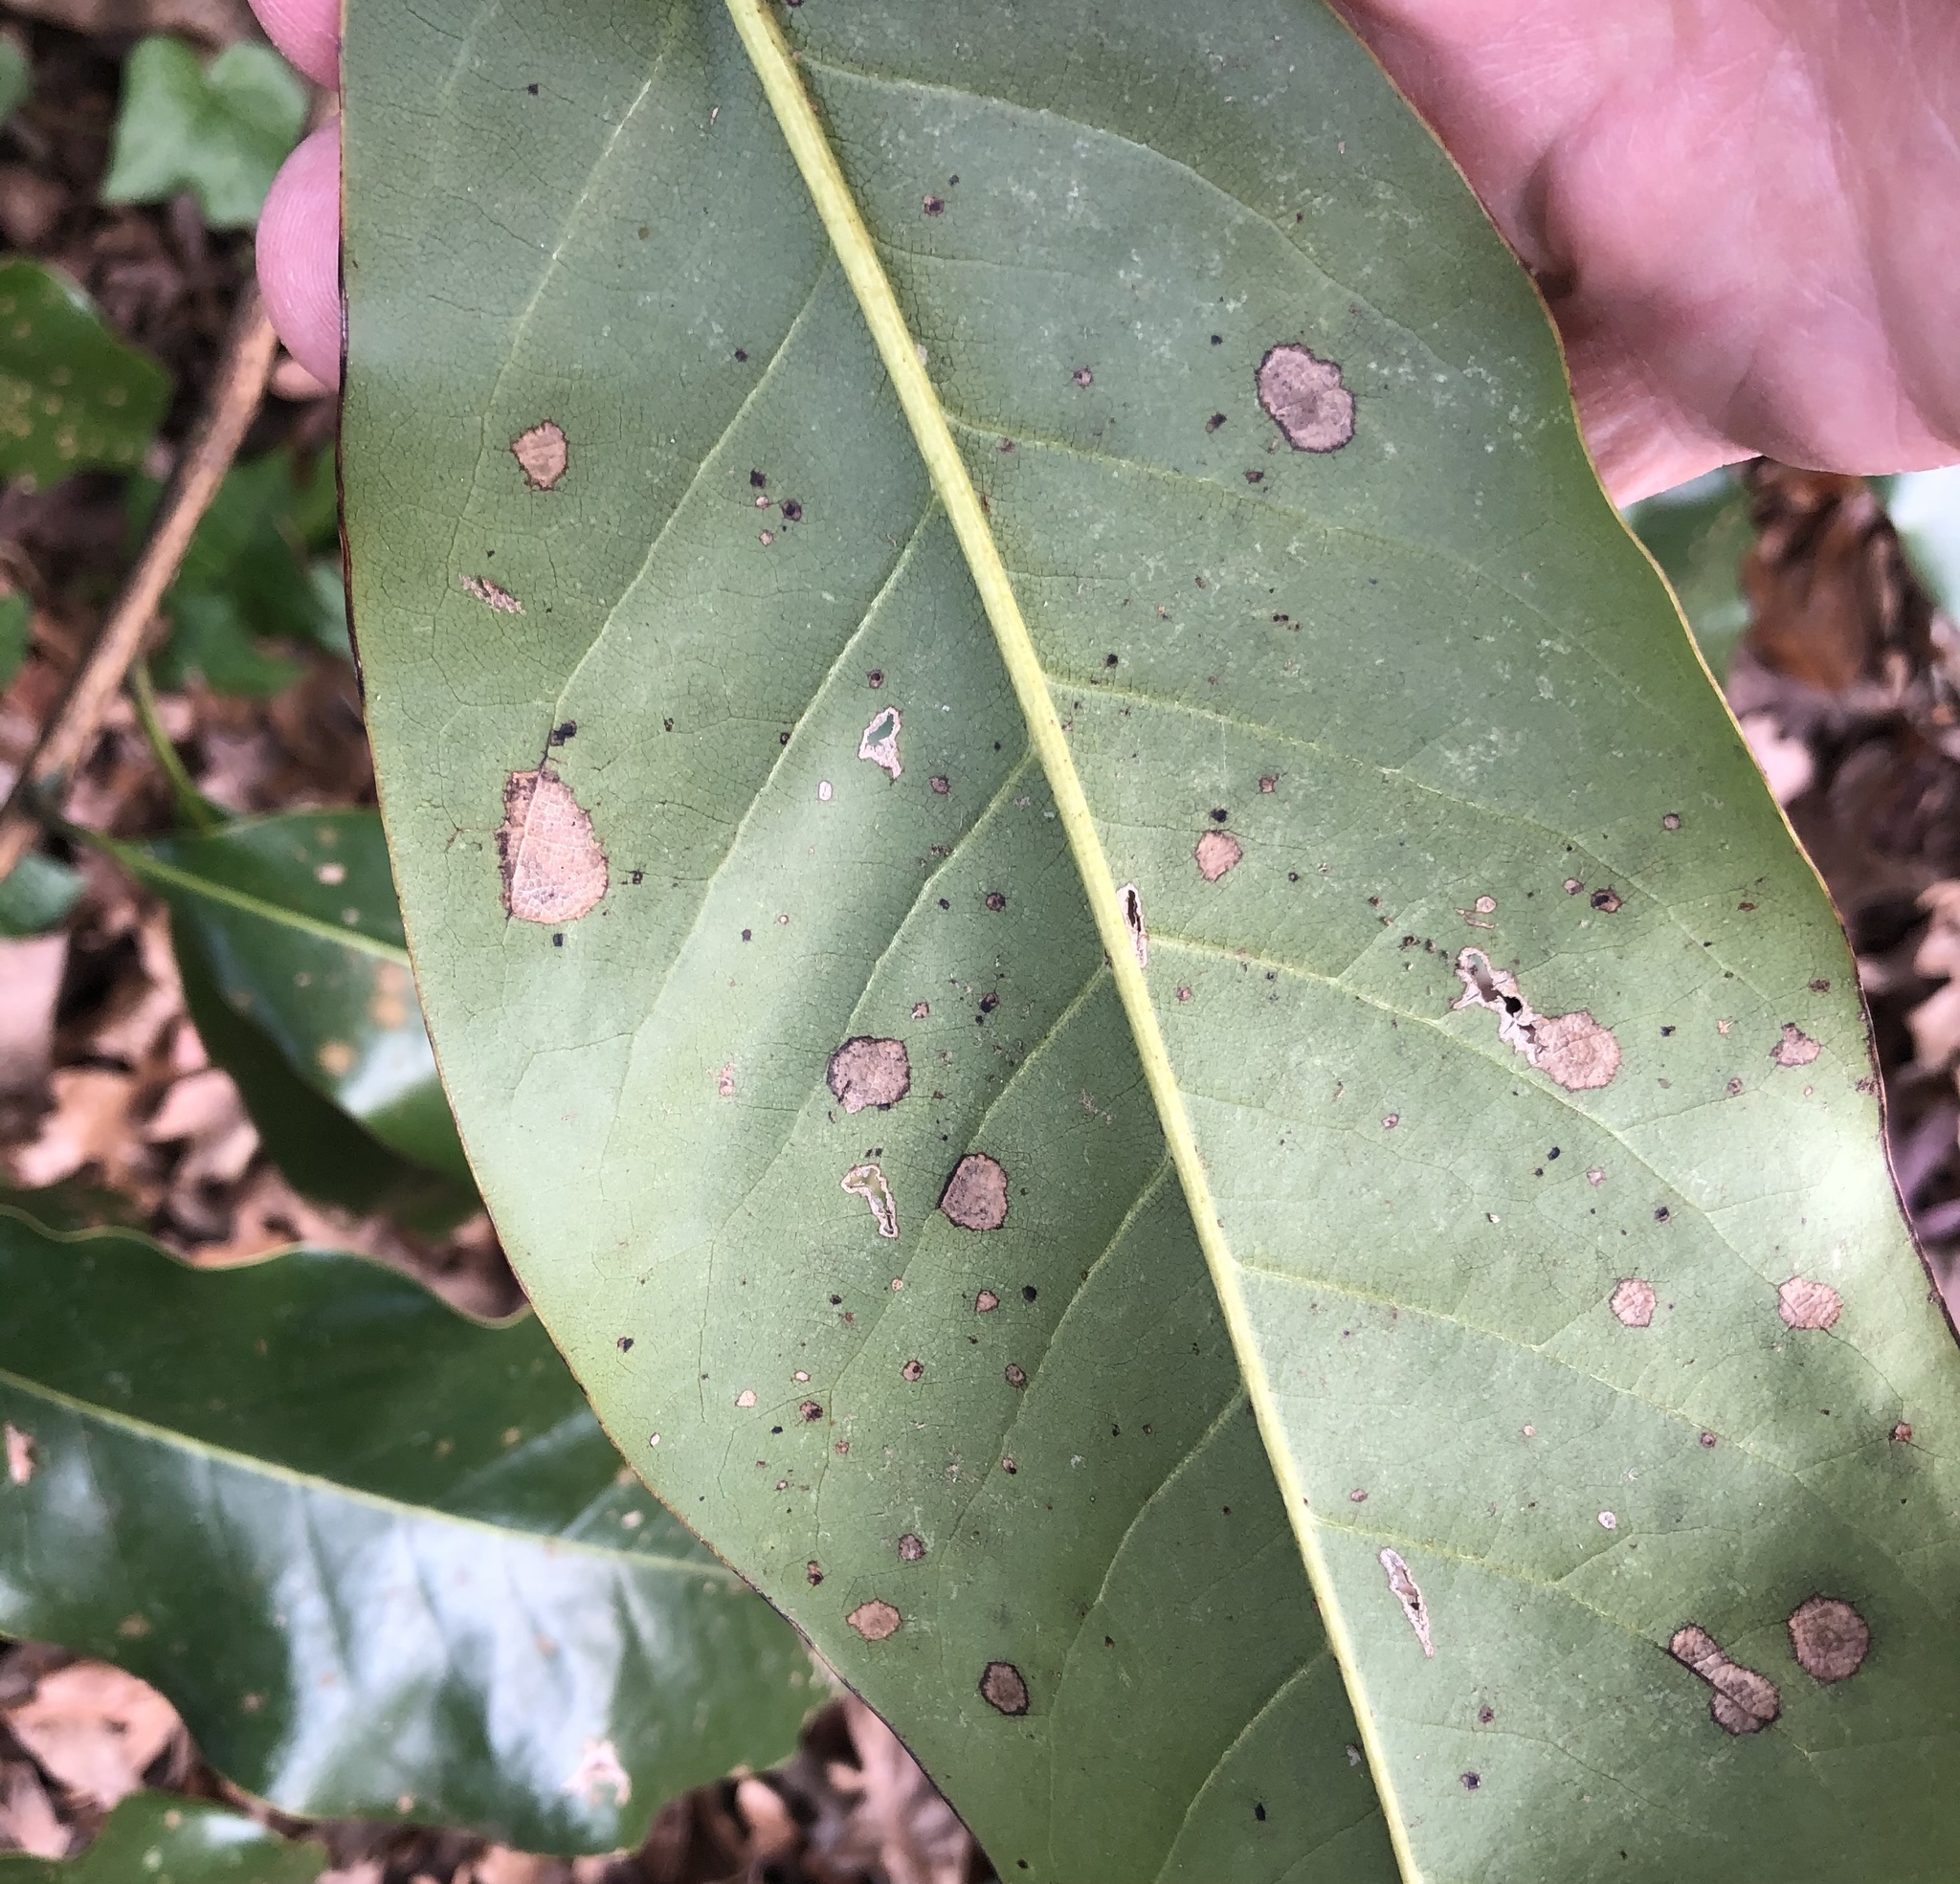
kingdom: Plantae
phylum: Chlorophyta
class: Ulvophyceae
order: Trentepohliales
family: Trentepohliaceae
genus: Cephaleuros
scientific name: Cephaleuros virescens
